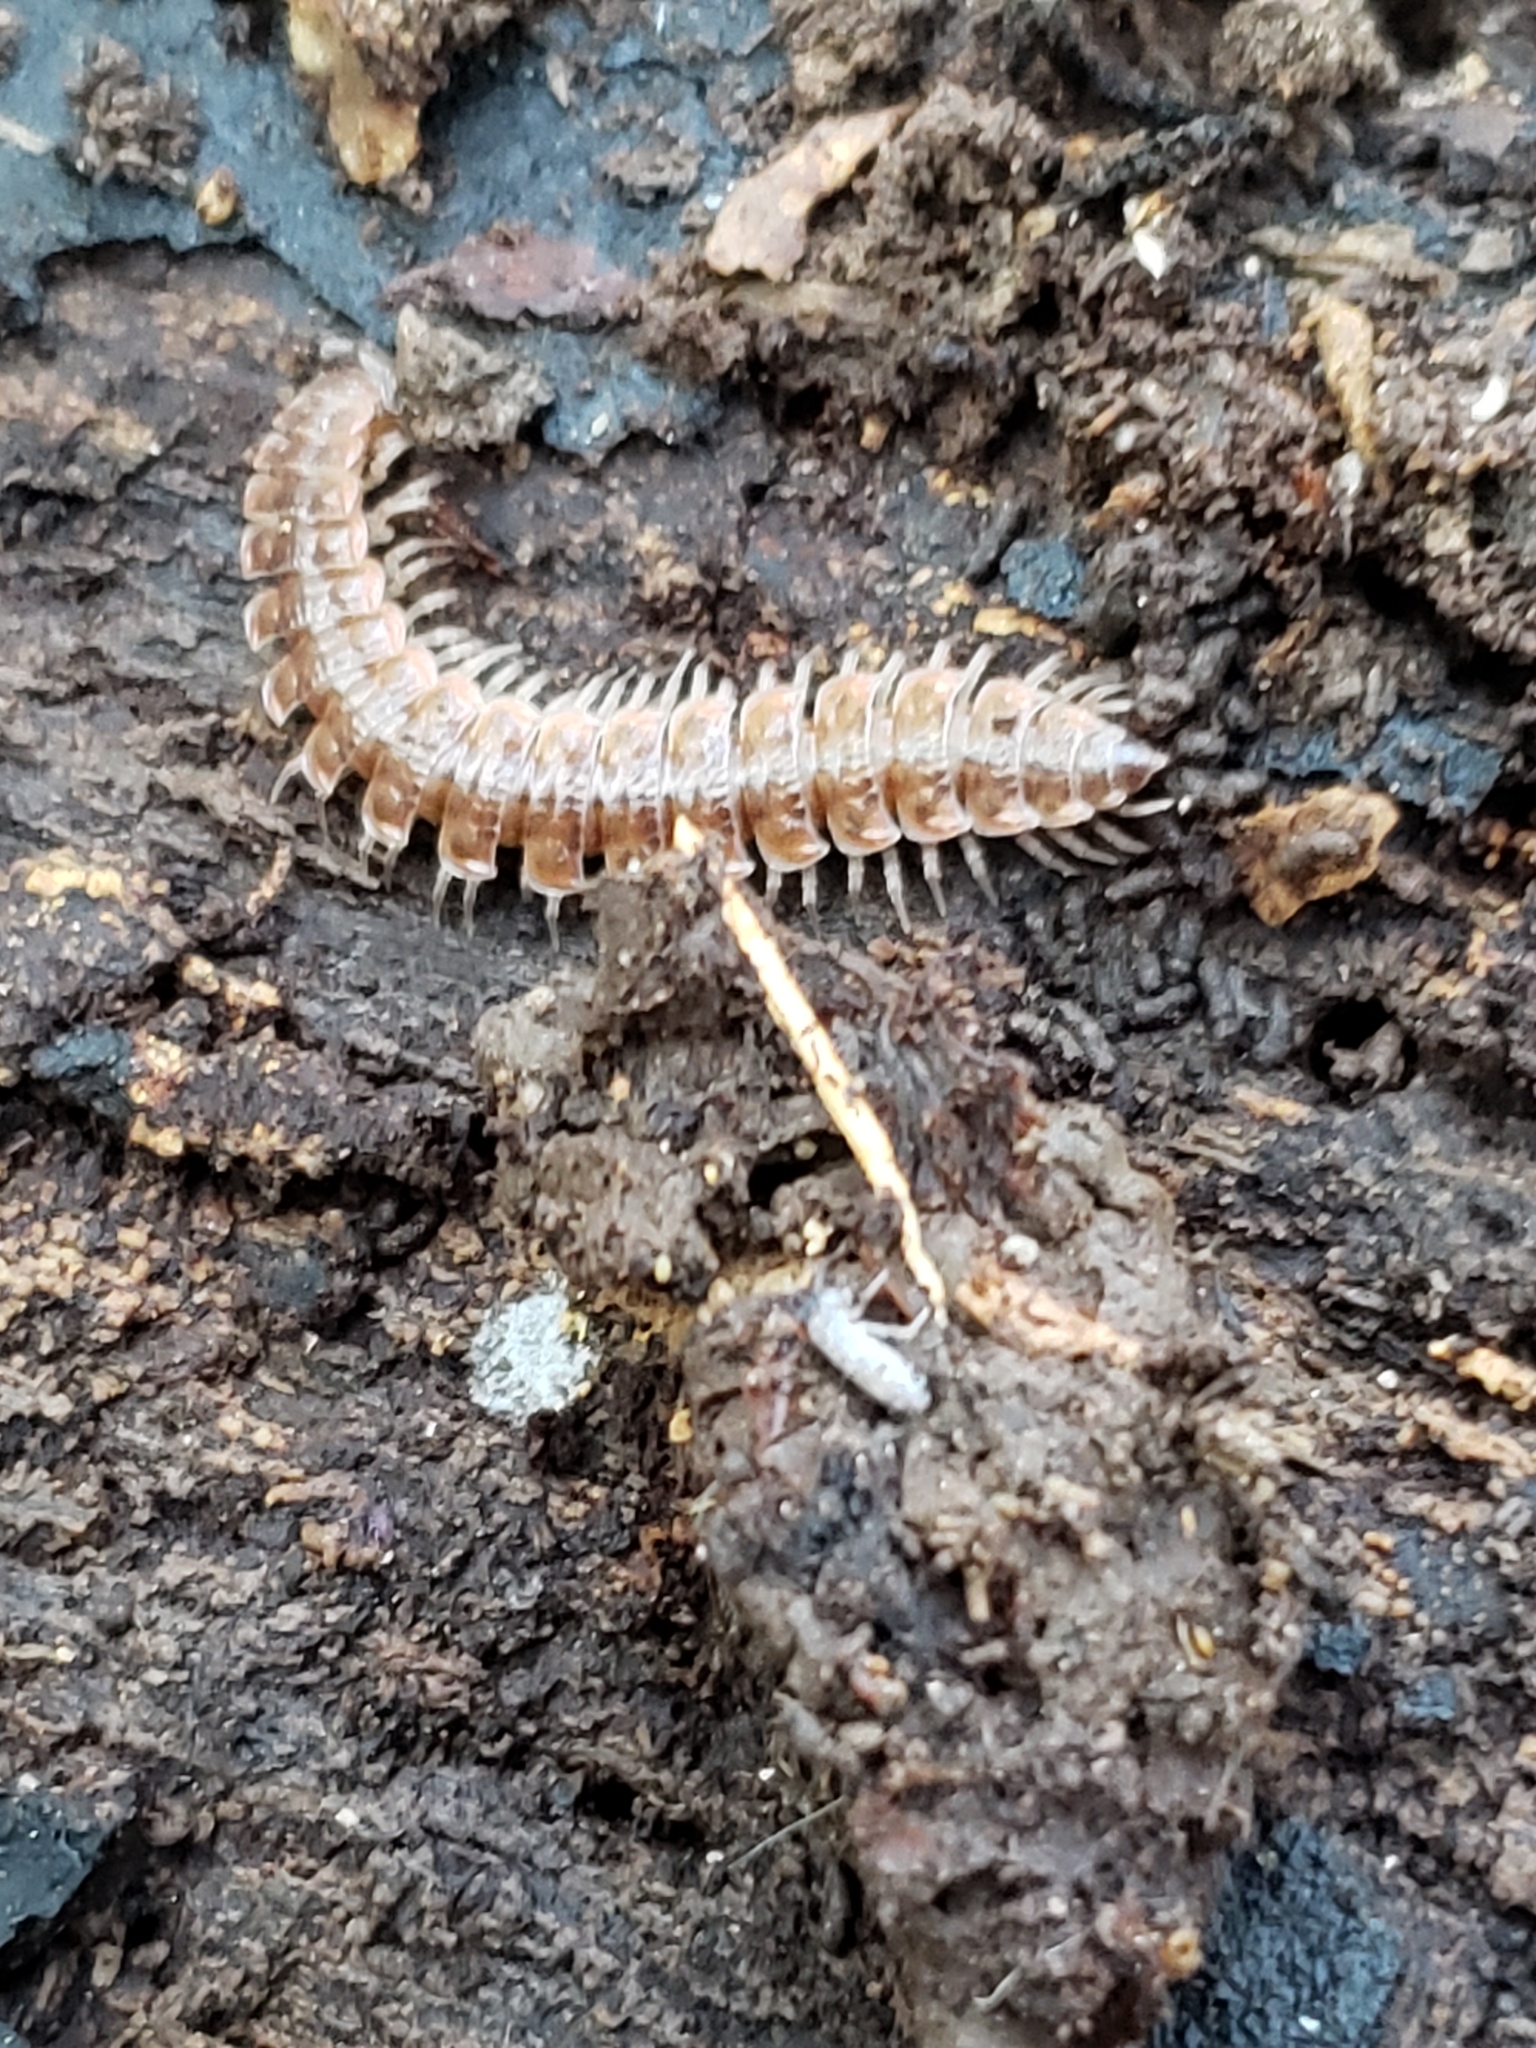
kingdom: Animalia
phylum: Arthropoda
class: Diplopoda
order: Polydesmida
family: Polydesmidae
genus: Pseudopolydesmus
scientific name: Pseudopolydesmus serratus
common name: Common pink flat-back millipede
